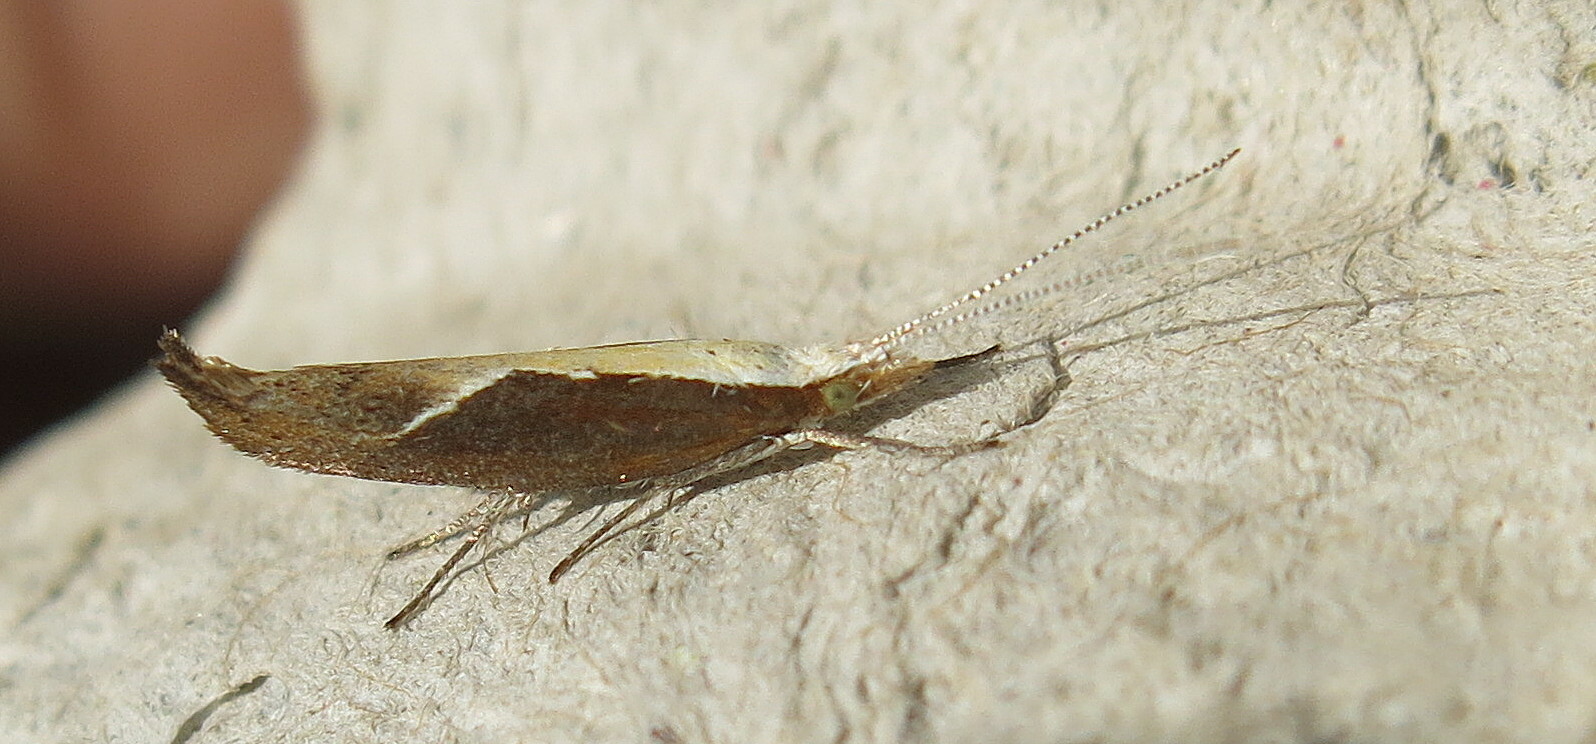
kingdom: Animalia
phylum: Arthropoda
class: Insecta
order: Lepidoptera
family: Ypsolophidae
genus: Ypsolopha
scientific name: Ypsolopha dentella
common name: Honeysuckle moth
